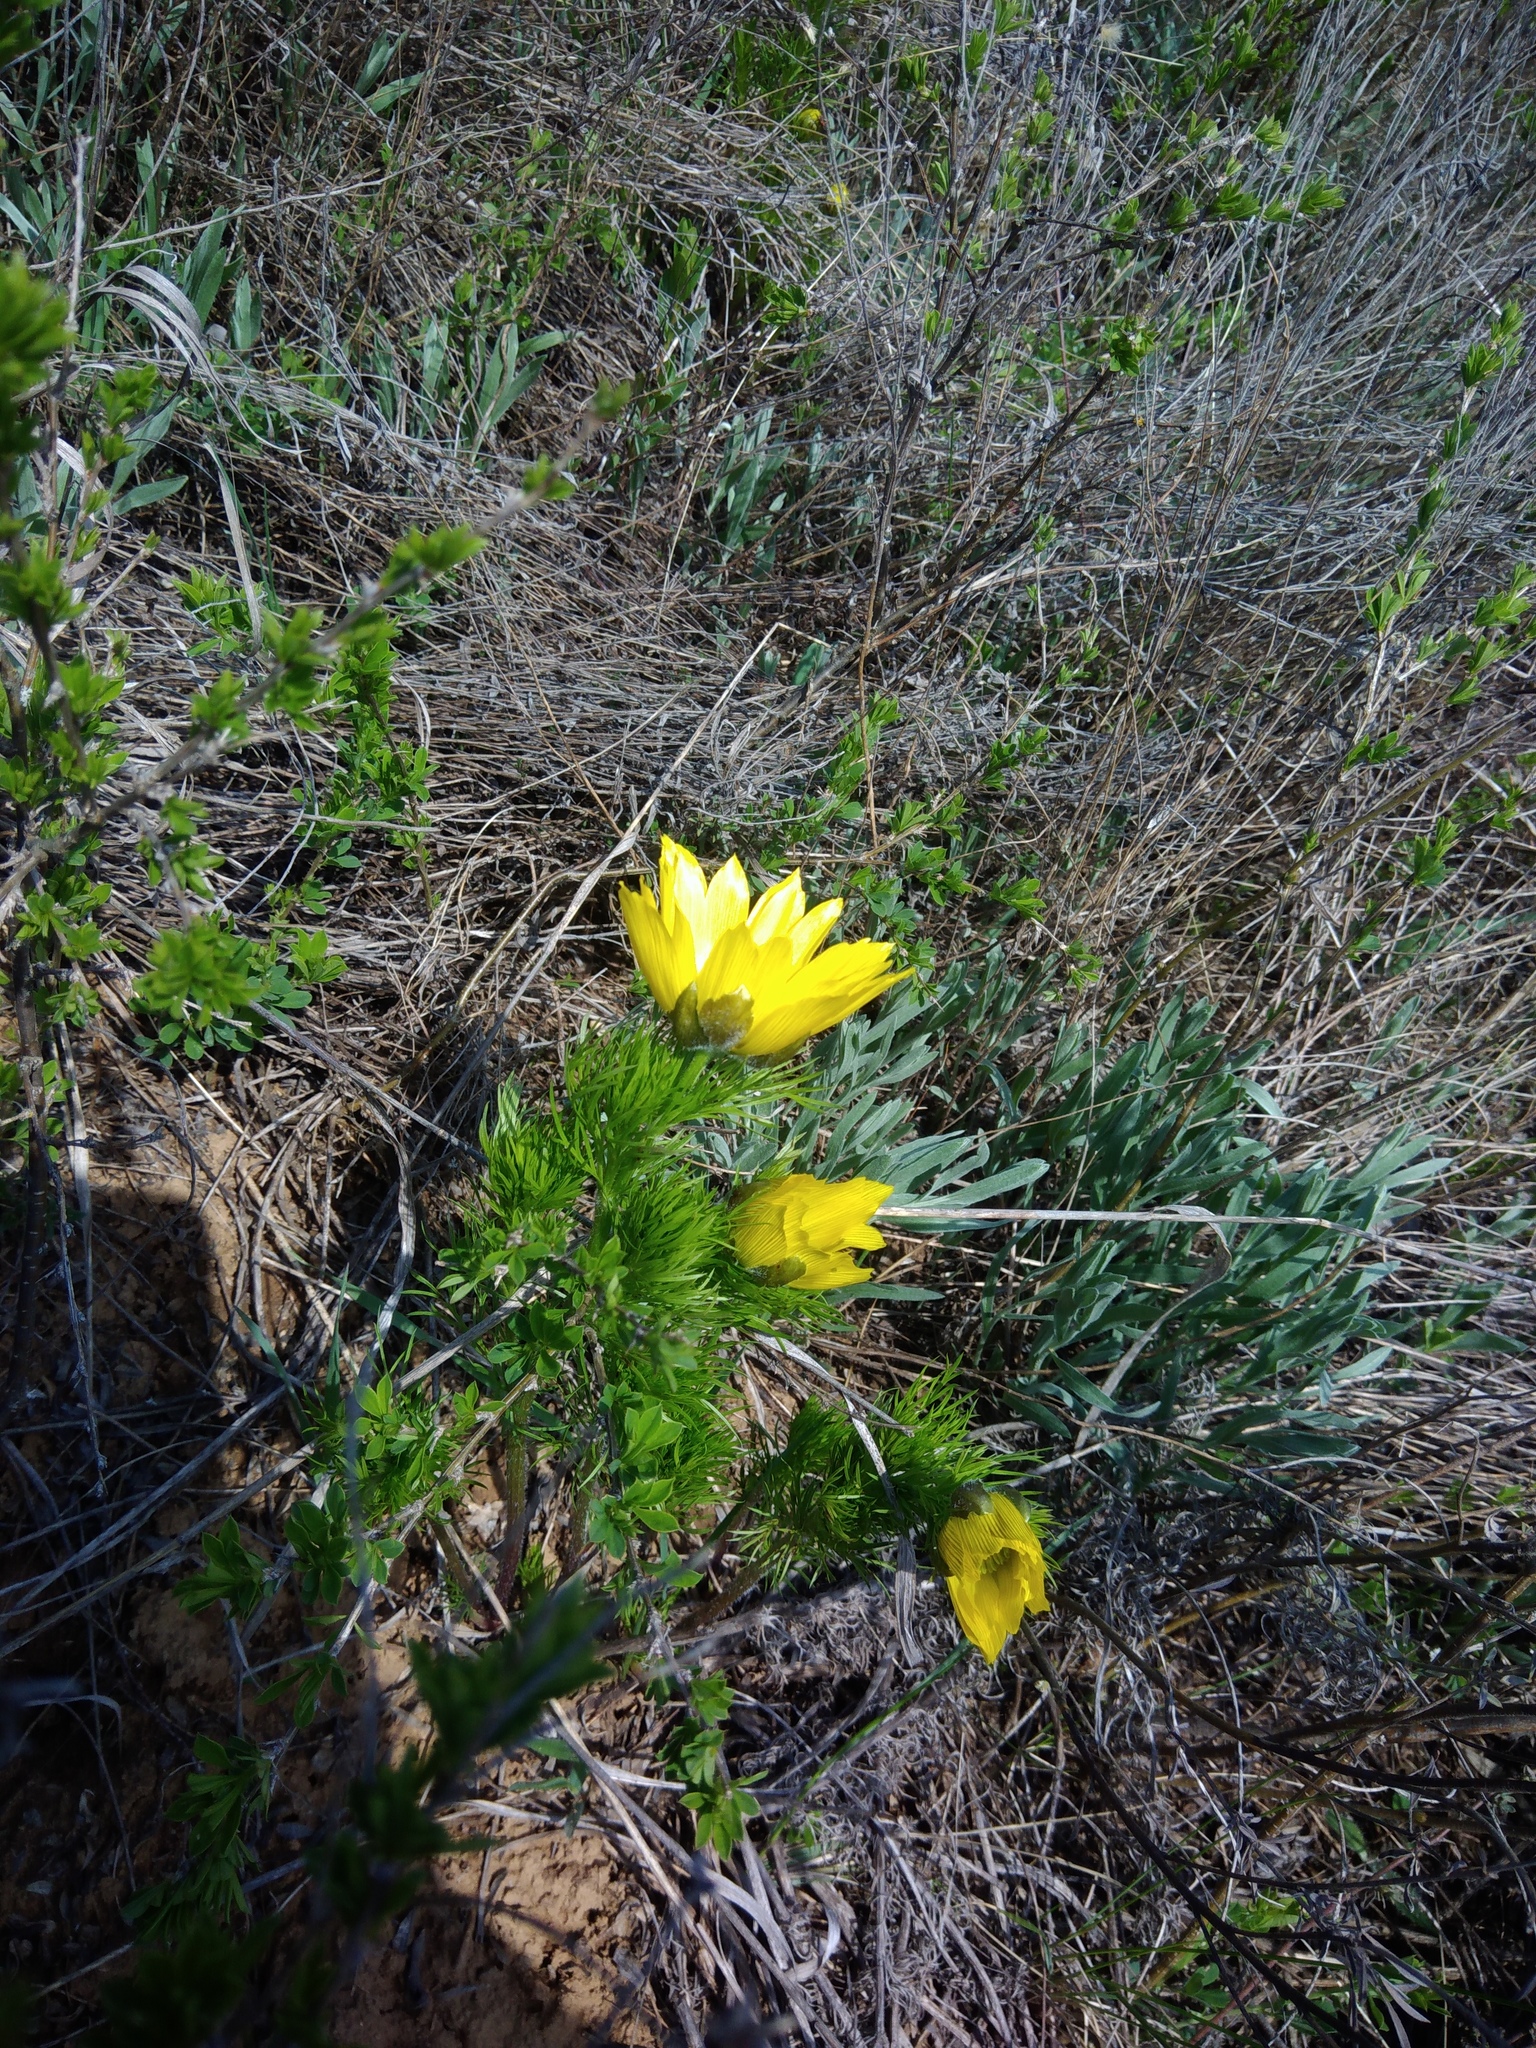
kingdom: Plantae
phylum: Tracheophyta
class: Magnoliopsida
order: Ranunculales
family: Ranunculaceae
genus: Adonis
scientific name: Adonis vernalis
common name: Yellow pheasants-eye
